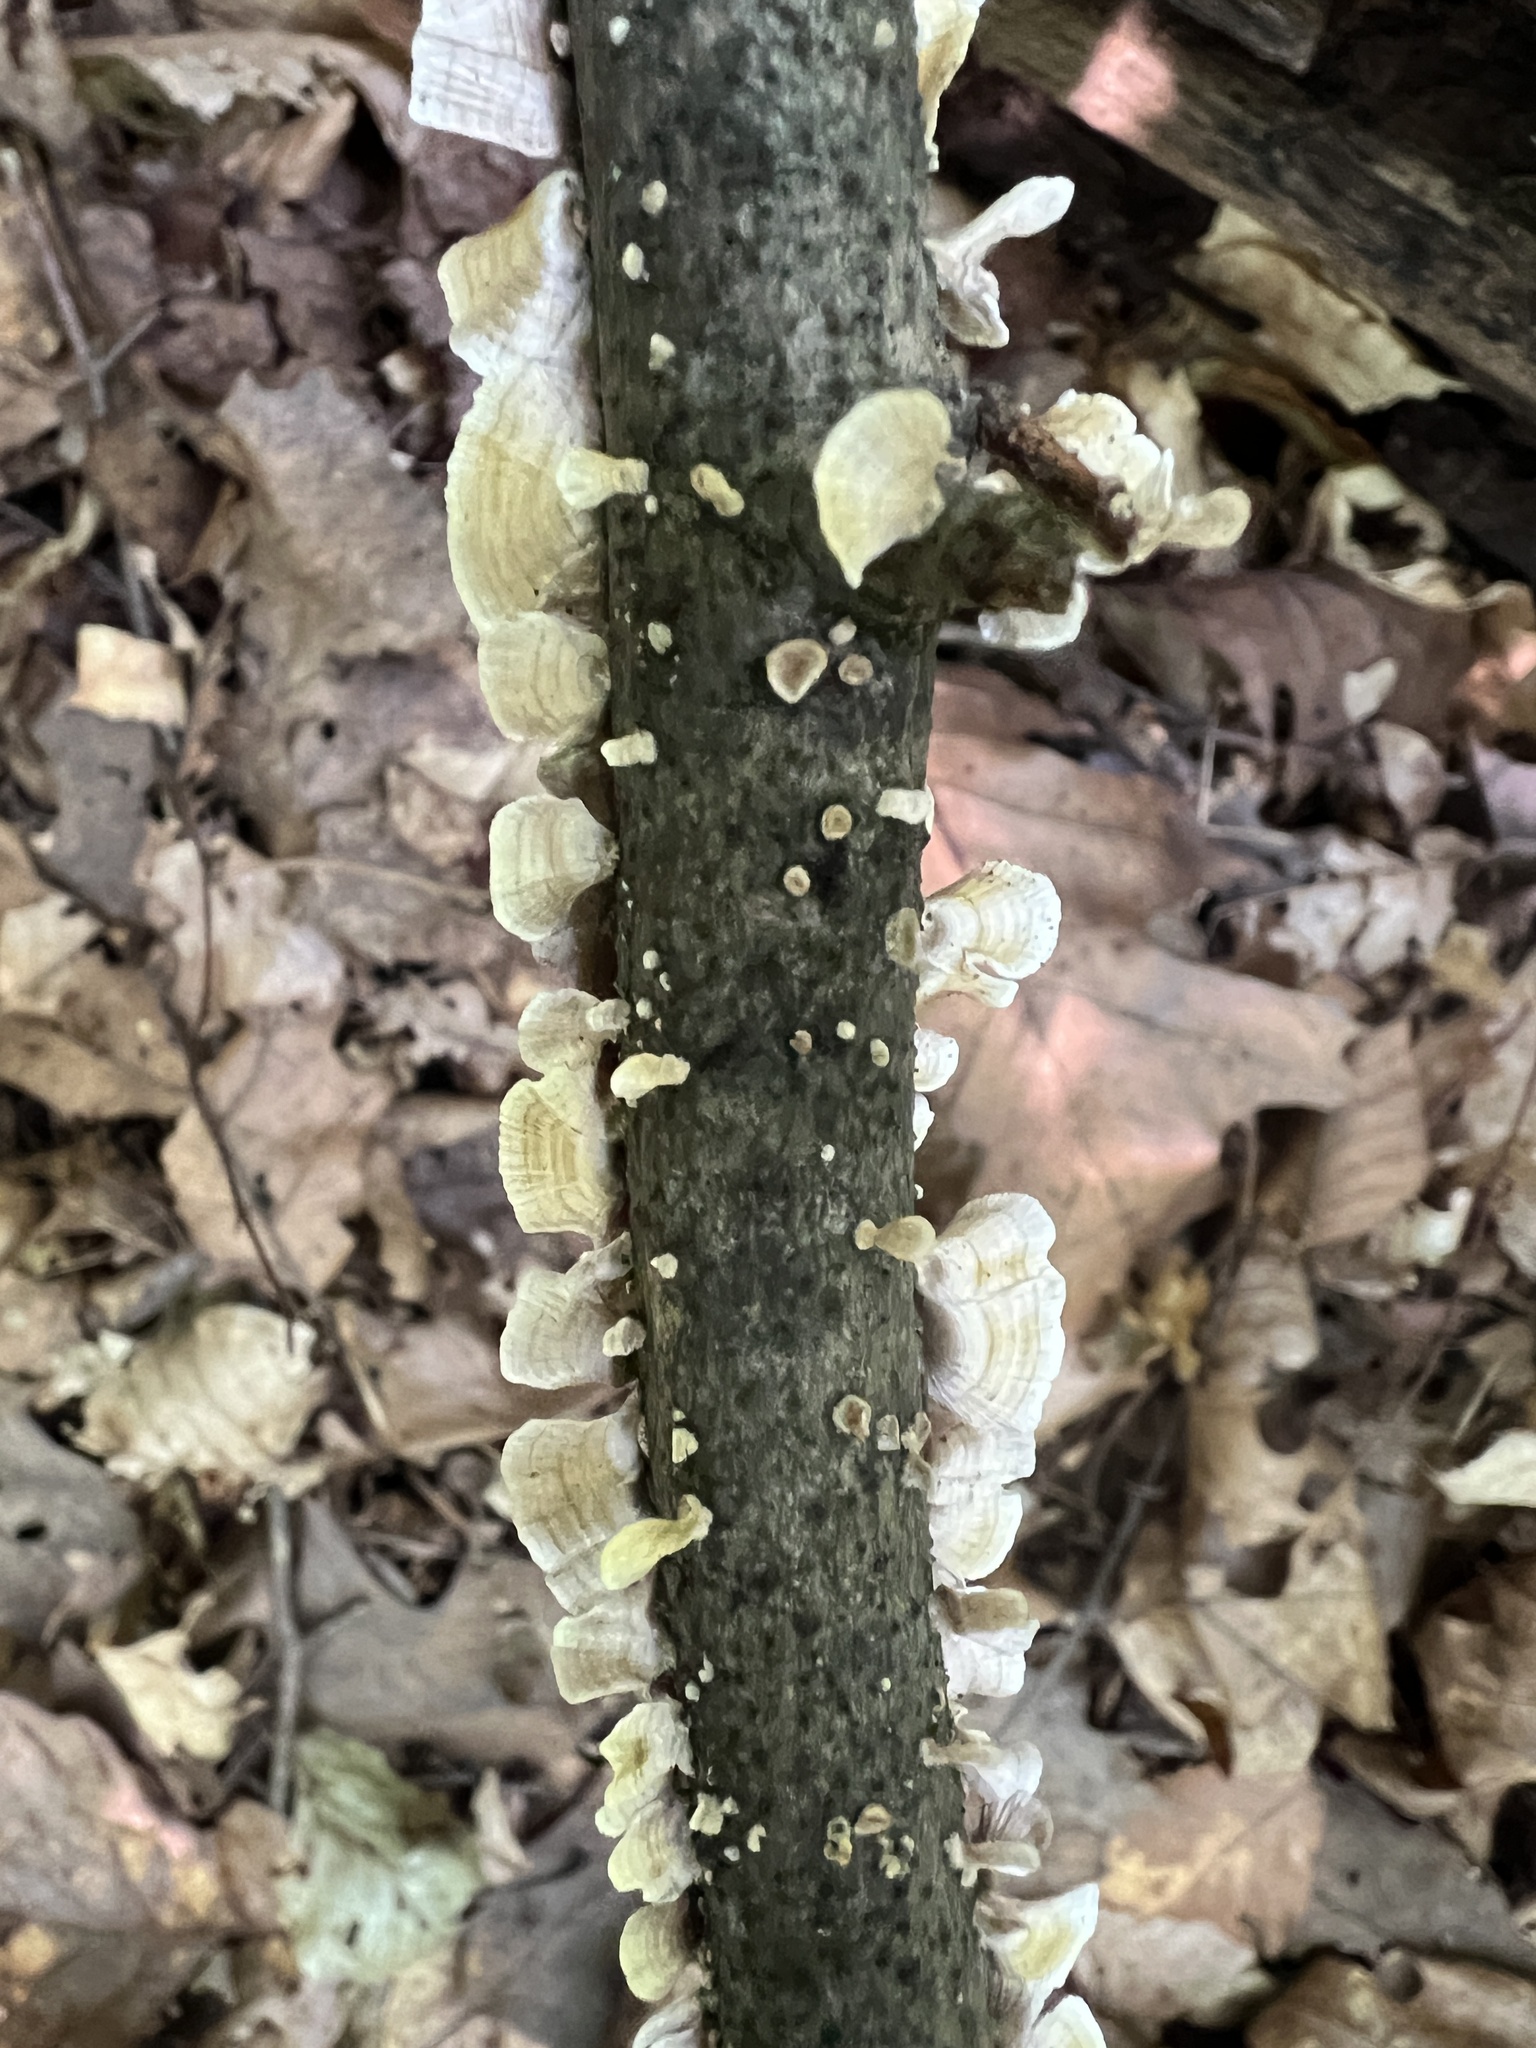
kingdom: Fungi
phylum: Basidiomycota
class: Agaricomycetes
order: Russulales
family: Stereaceae
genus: Stereum
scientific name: Stereum striatum
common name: Silky parchment
